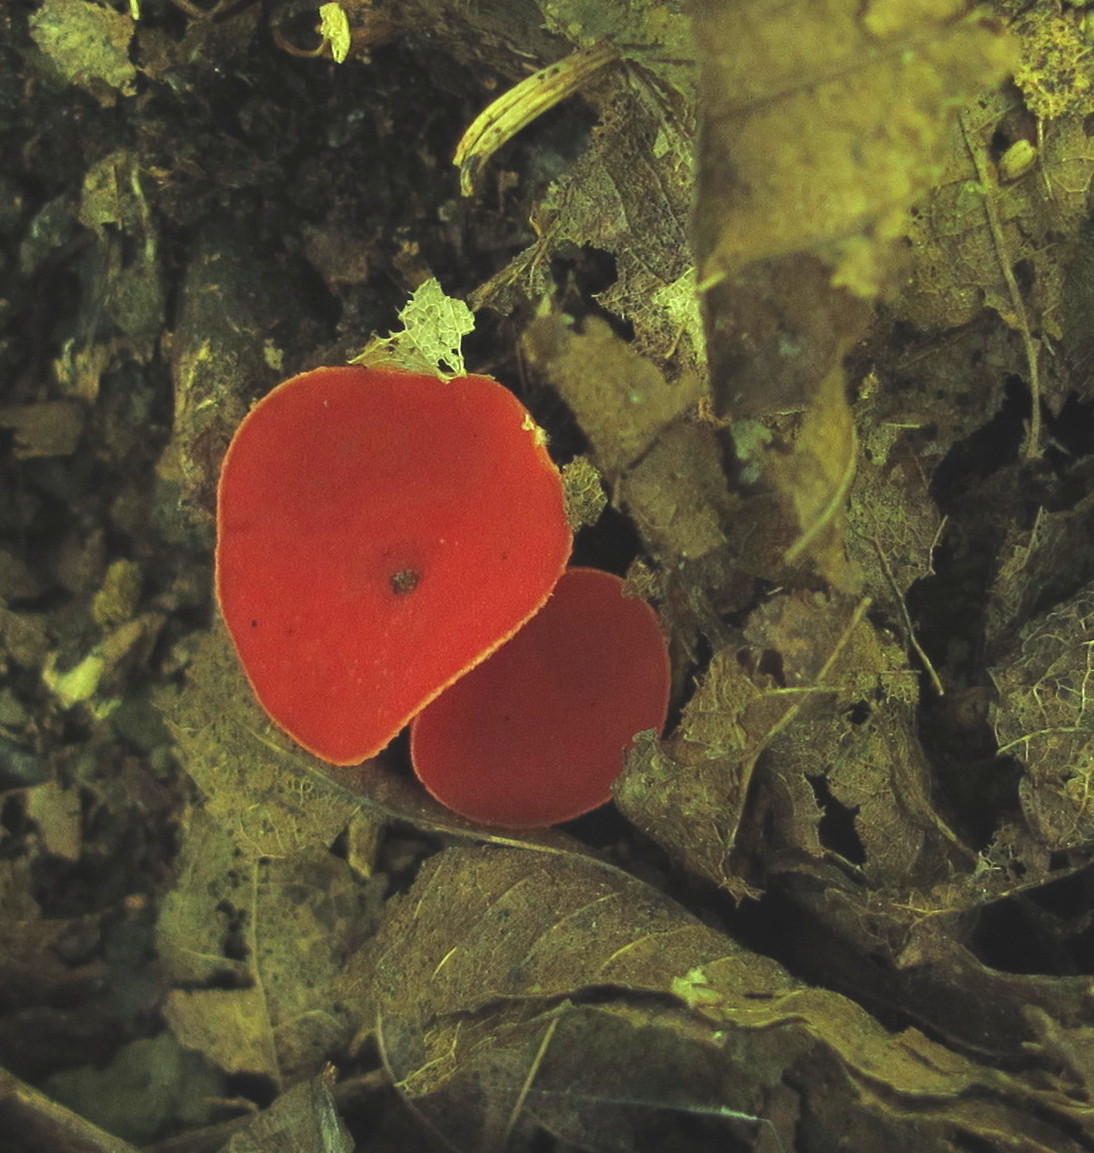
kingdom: Fungi
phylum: Ascomycota
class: Pezizomycetes
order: Pezizales
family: Sarcoscyphaceae
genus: Sarcoscypha
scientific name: Sarcoscypha occidentalis
